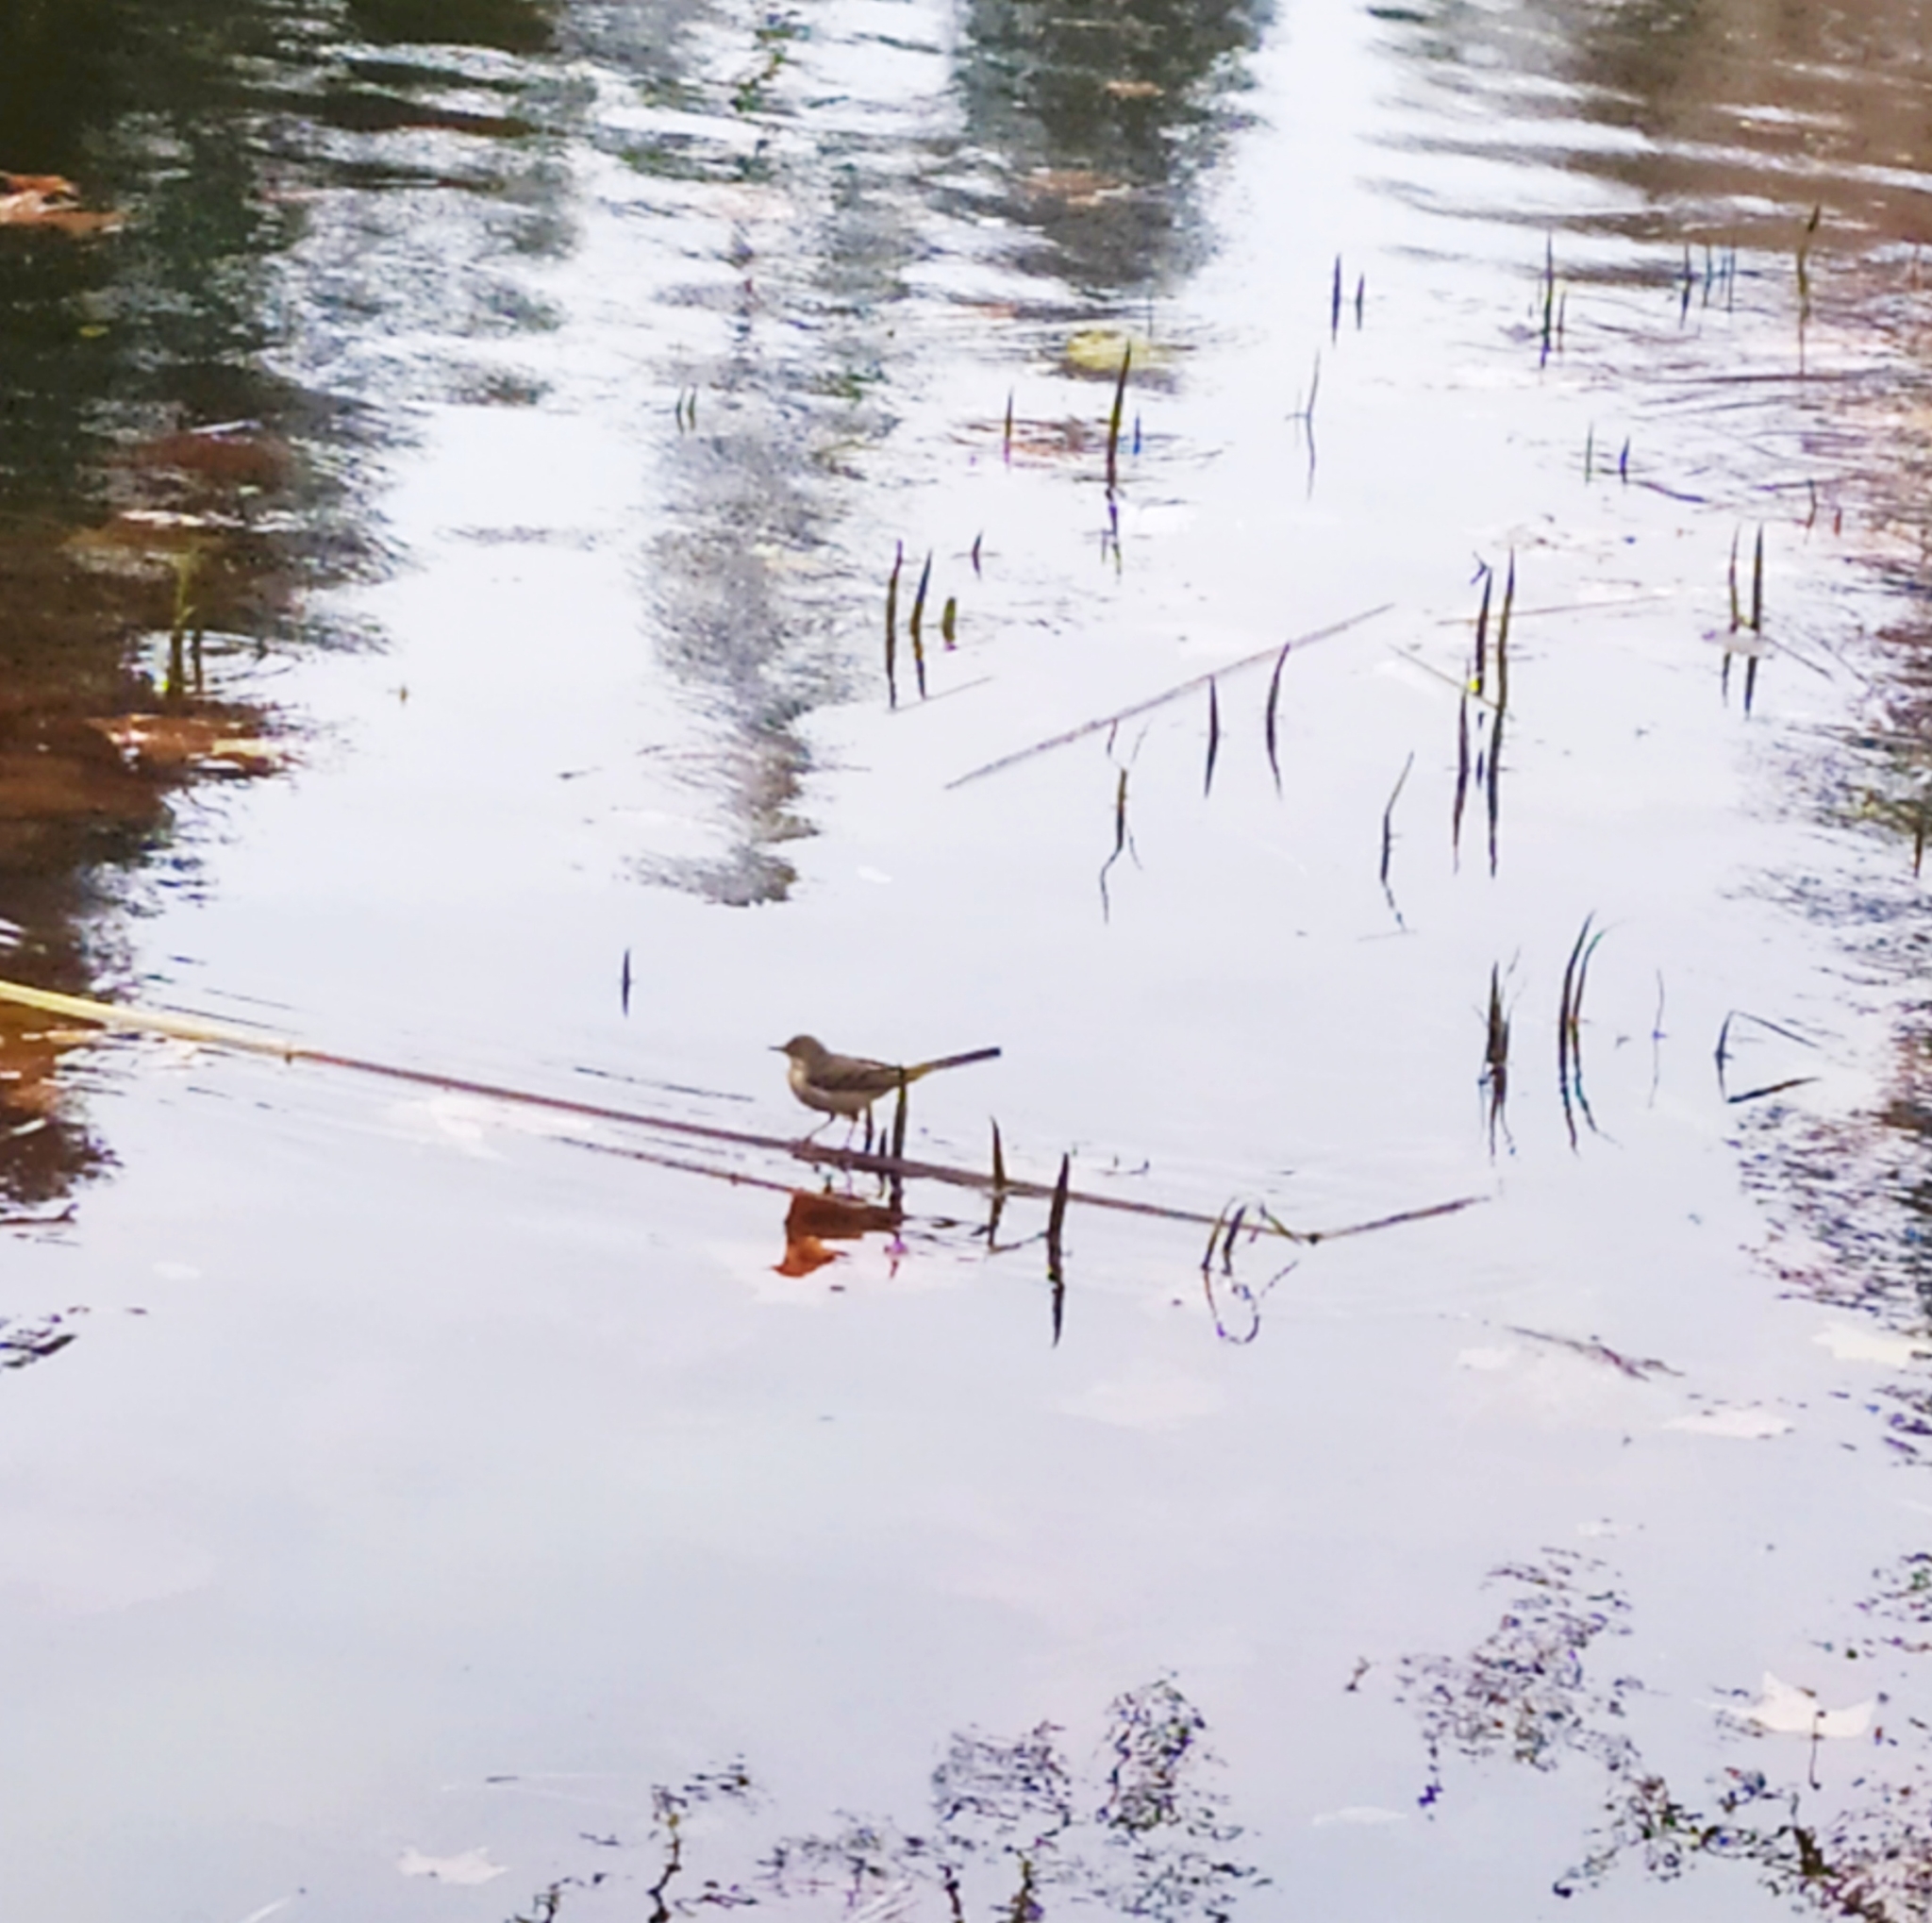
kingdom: Animalia
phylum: Chordata
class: Aves
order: Passeriformes
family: Motacillidae
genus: Motacilla
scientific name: Motacilla cinerea
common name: Grey wagtail
